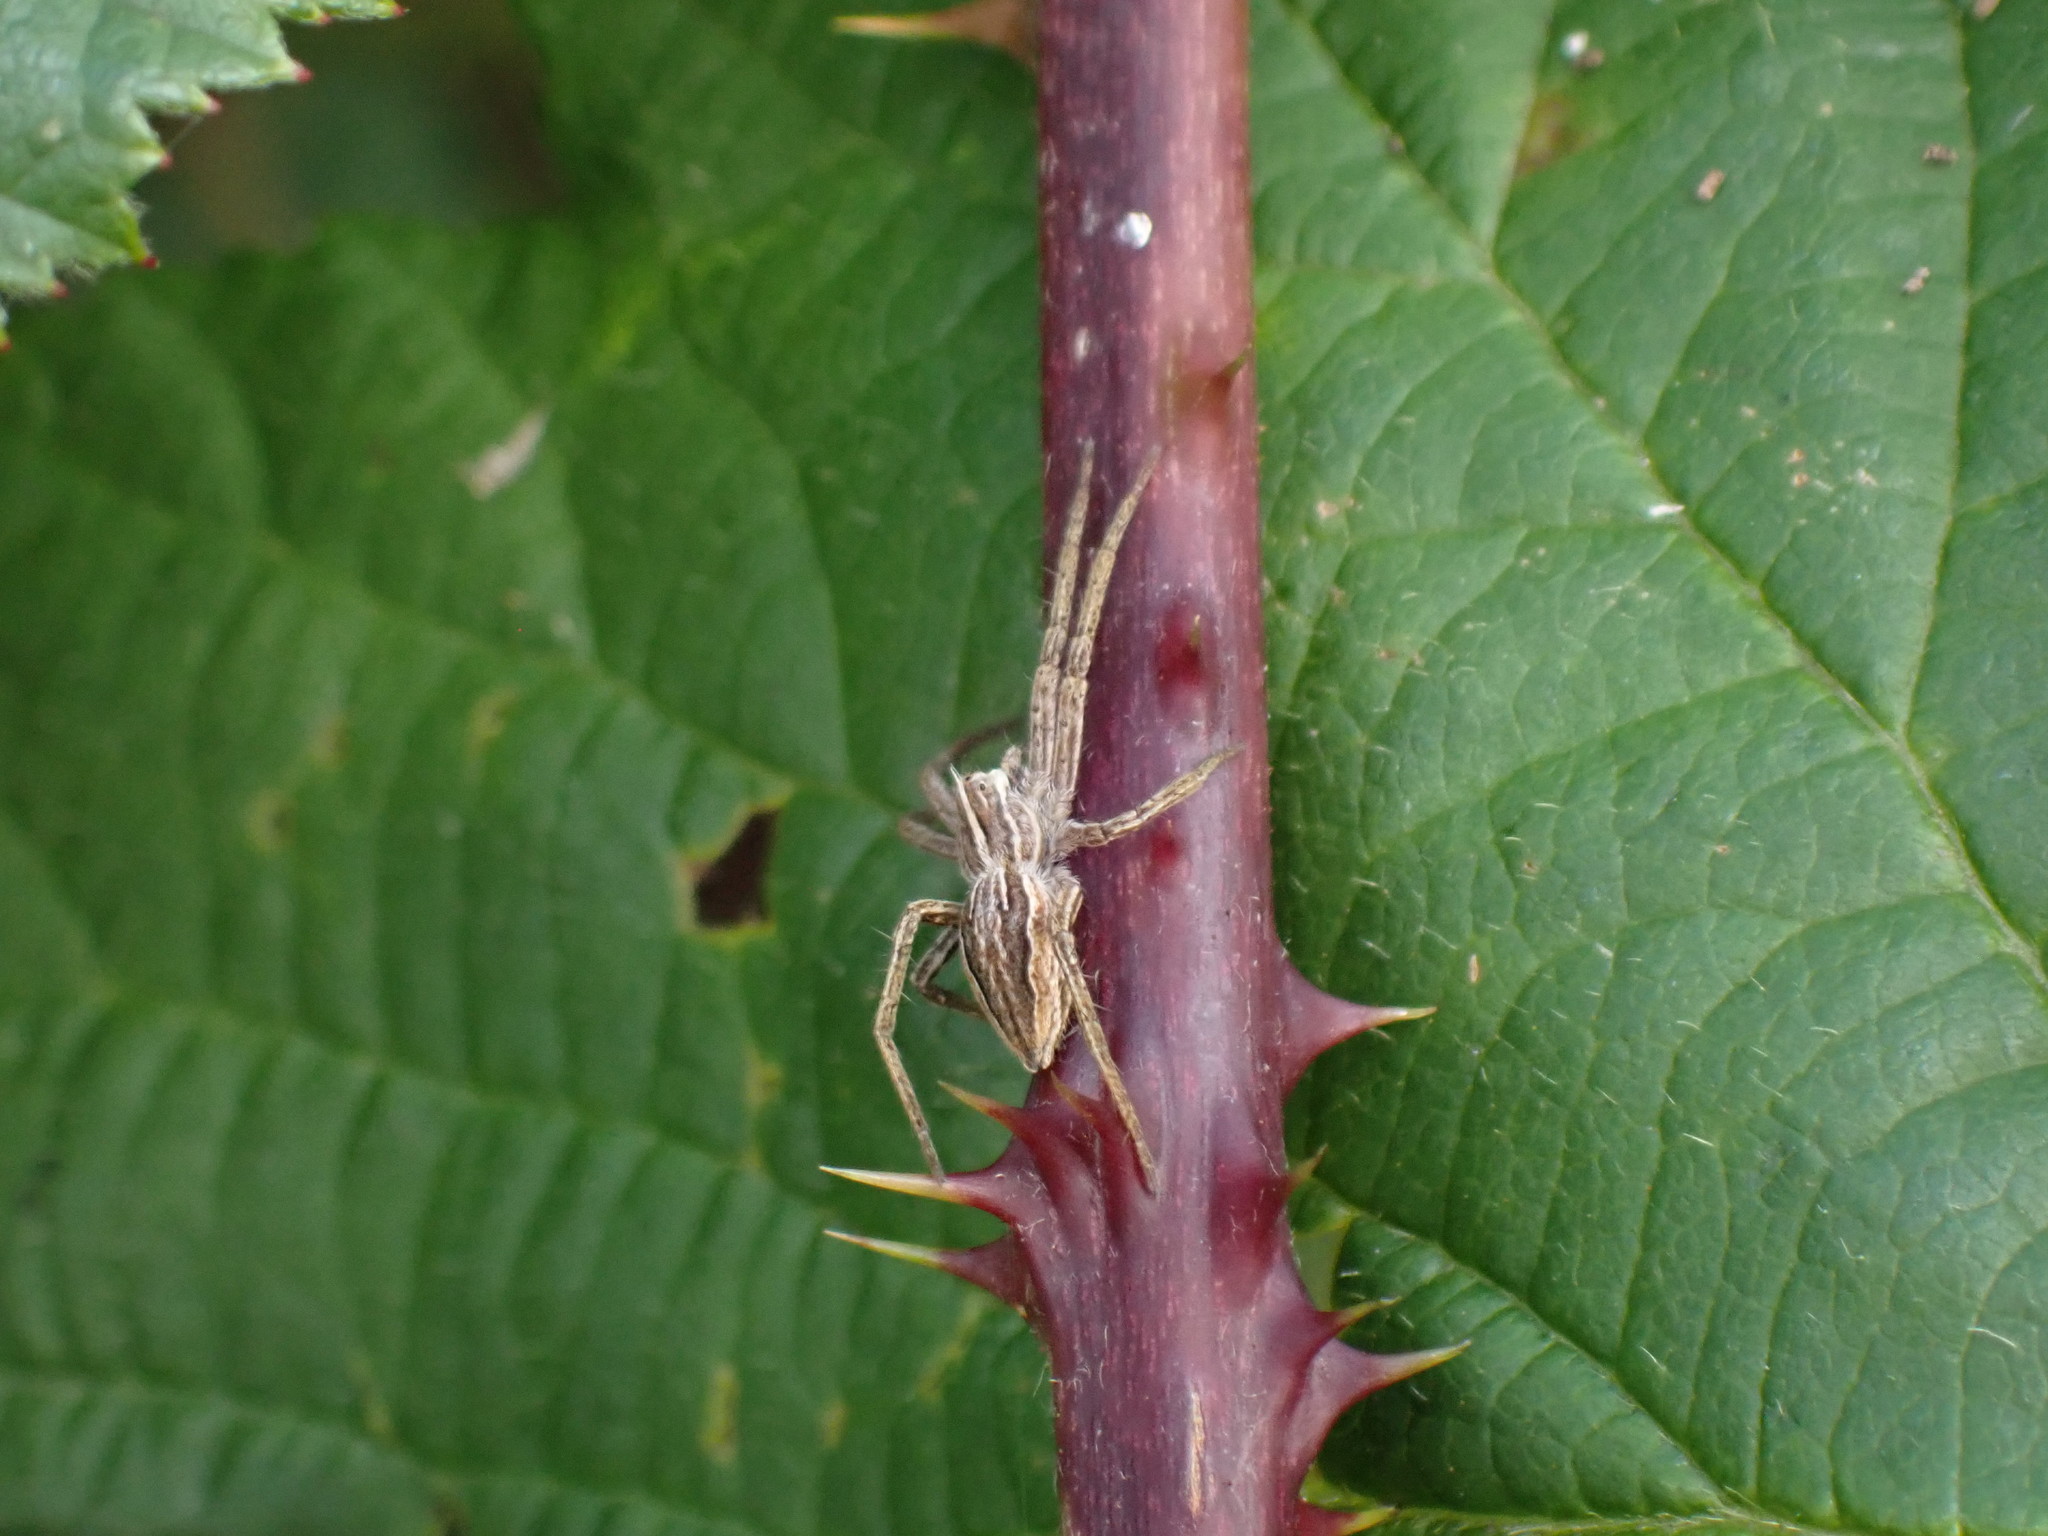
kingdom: Animalia
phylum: Arthropoda
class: Arachnida
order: Araneae
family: Pisauridae
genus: Pisaura
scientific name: Pisaura mirabilis
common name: Tent spider
